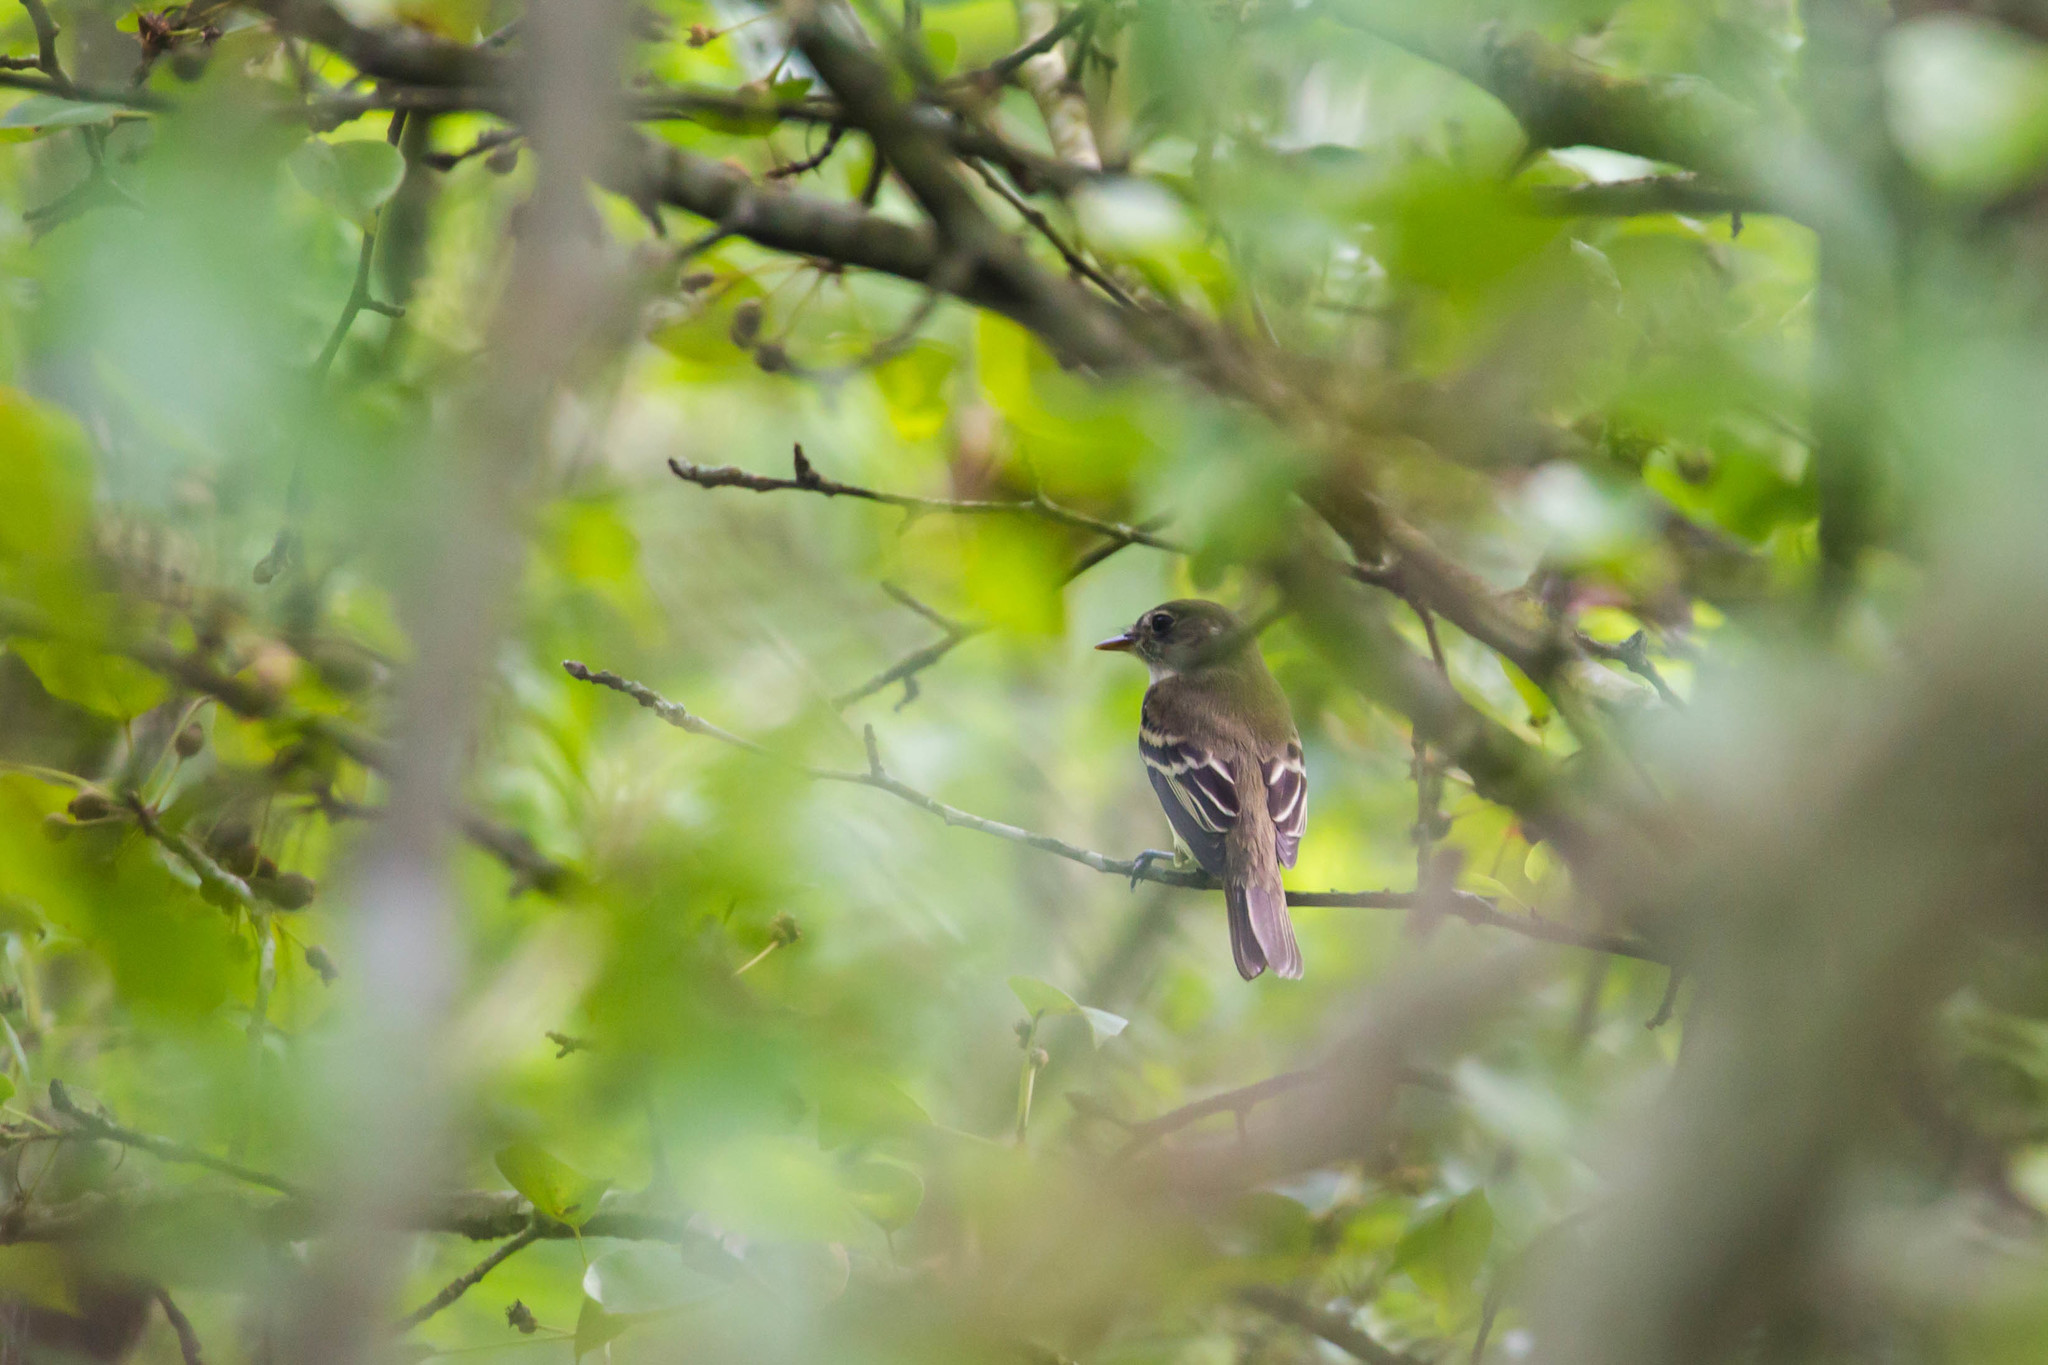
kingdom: Animalia
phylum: Chordata
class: Aves
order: Passeriformes
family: Tyrannidae
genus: Empidonax
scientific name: Empidonax virescens
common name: Acadian flycatcher
